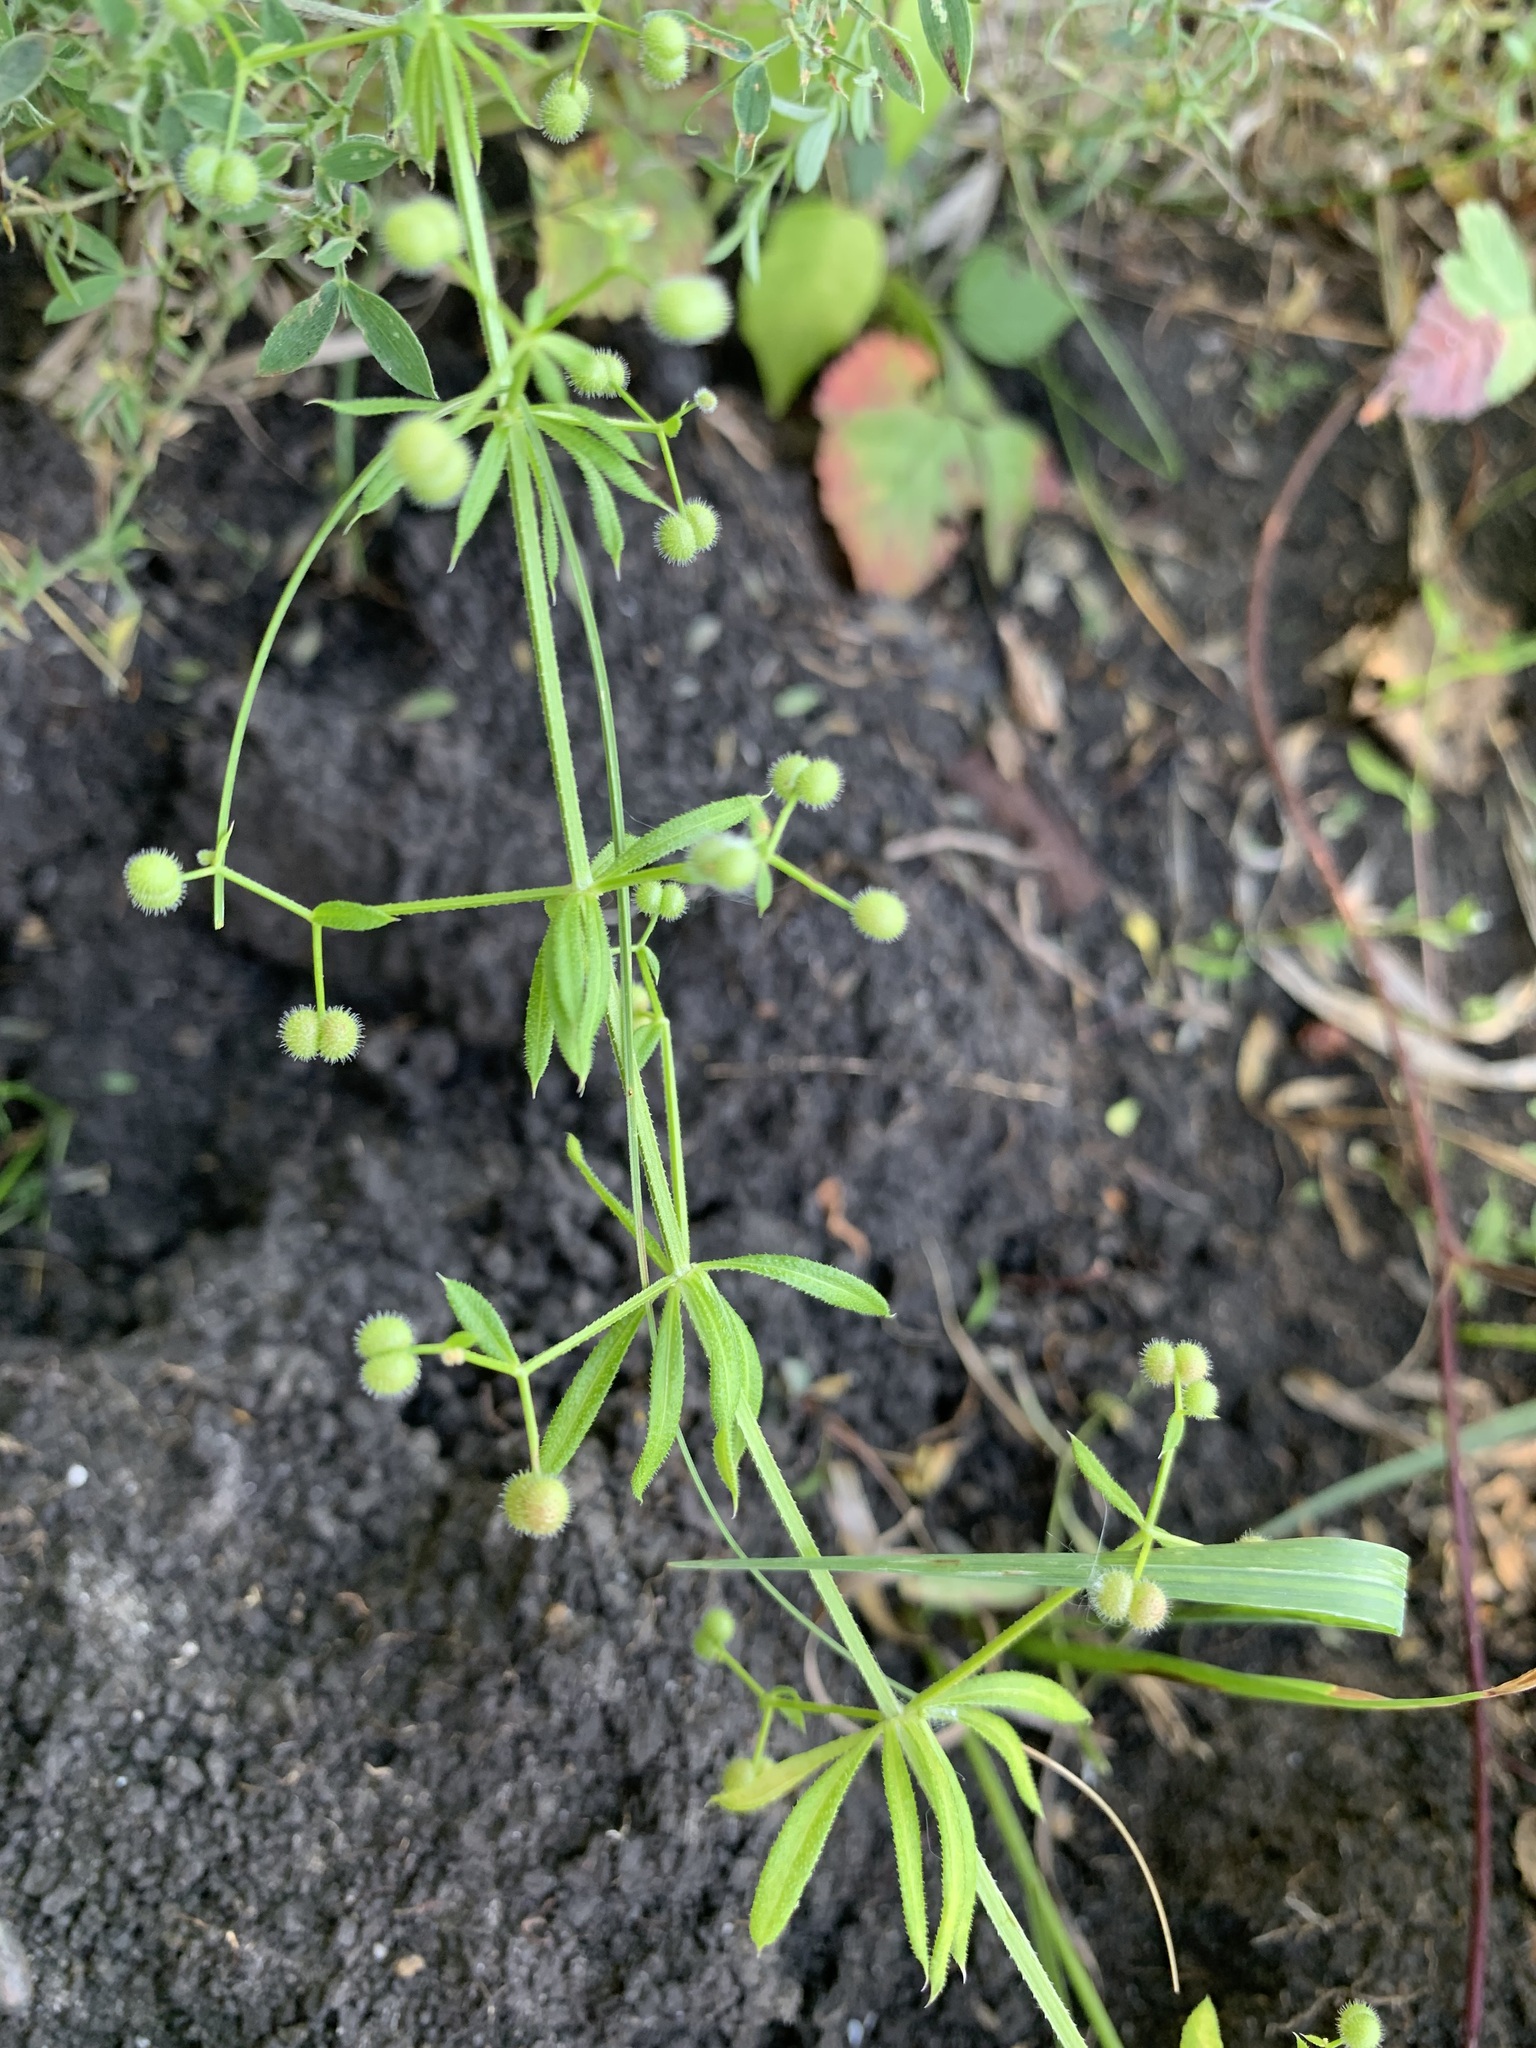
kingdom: Plantae
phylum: Tracheophyta
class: Magnoliopsida
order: Gentianales
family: Rubiaceae
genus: Galium
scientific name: Galium spurium
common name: False cleavers
